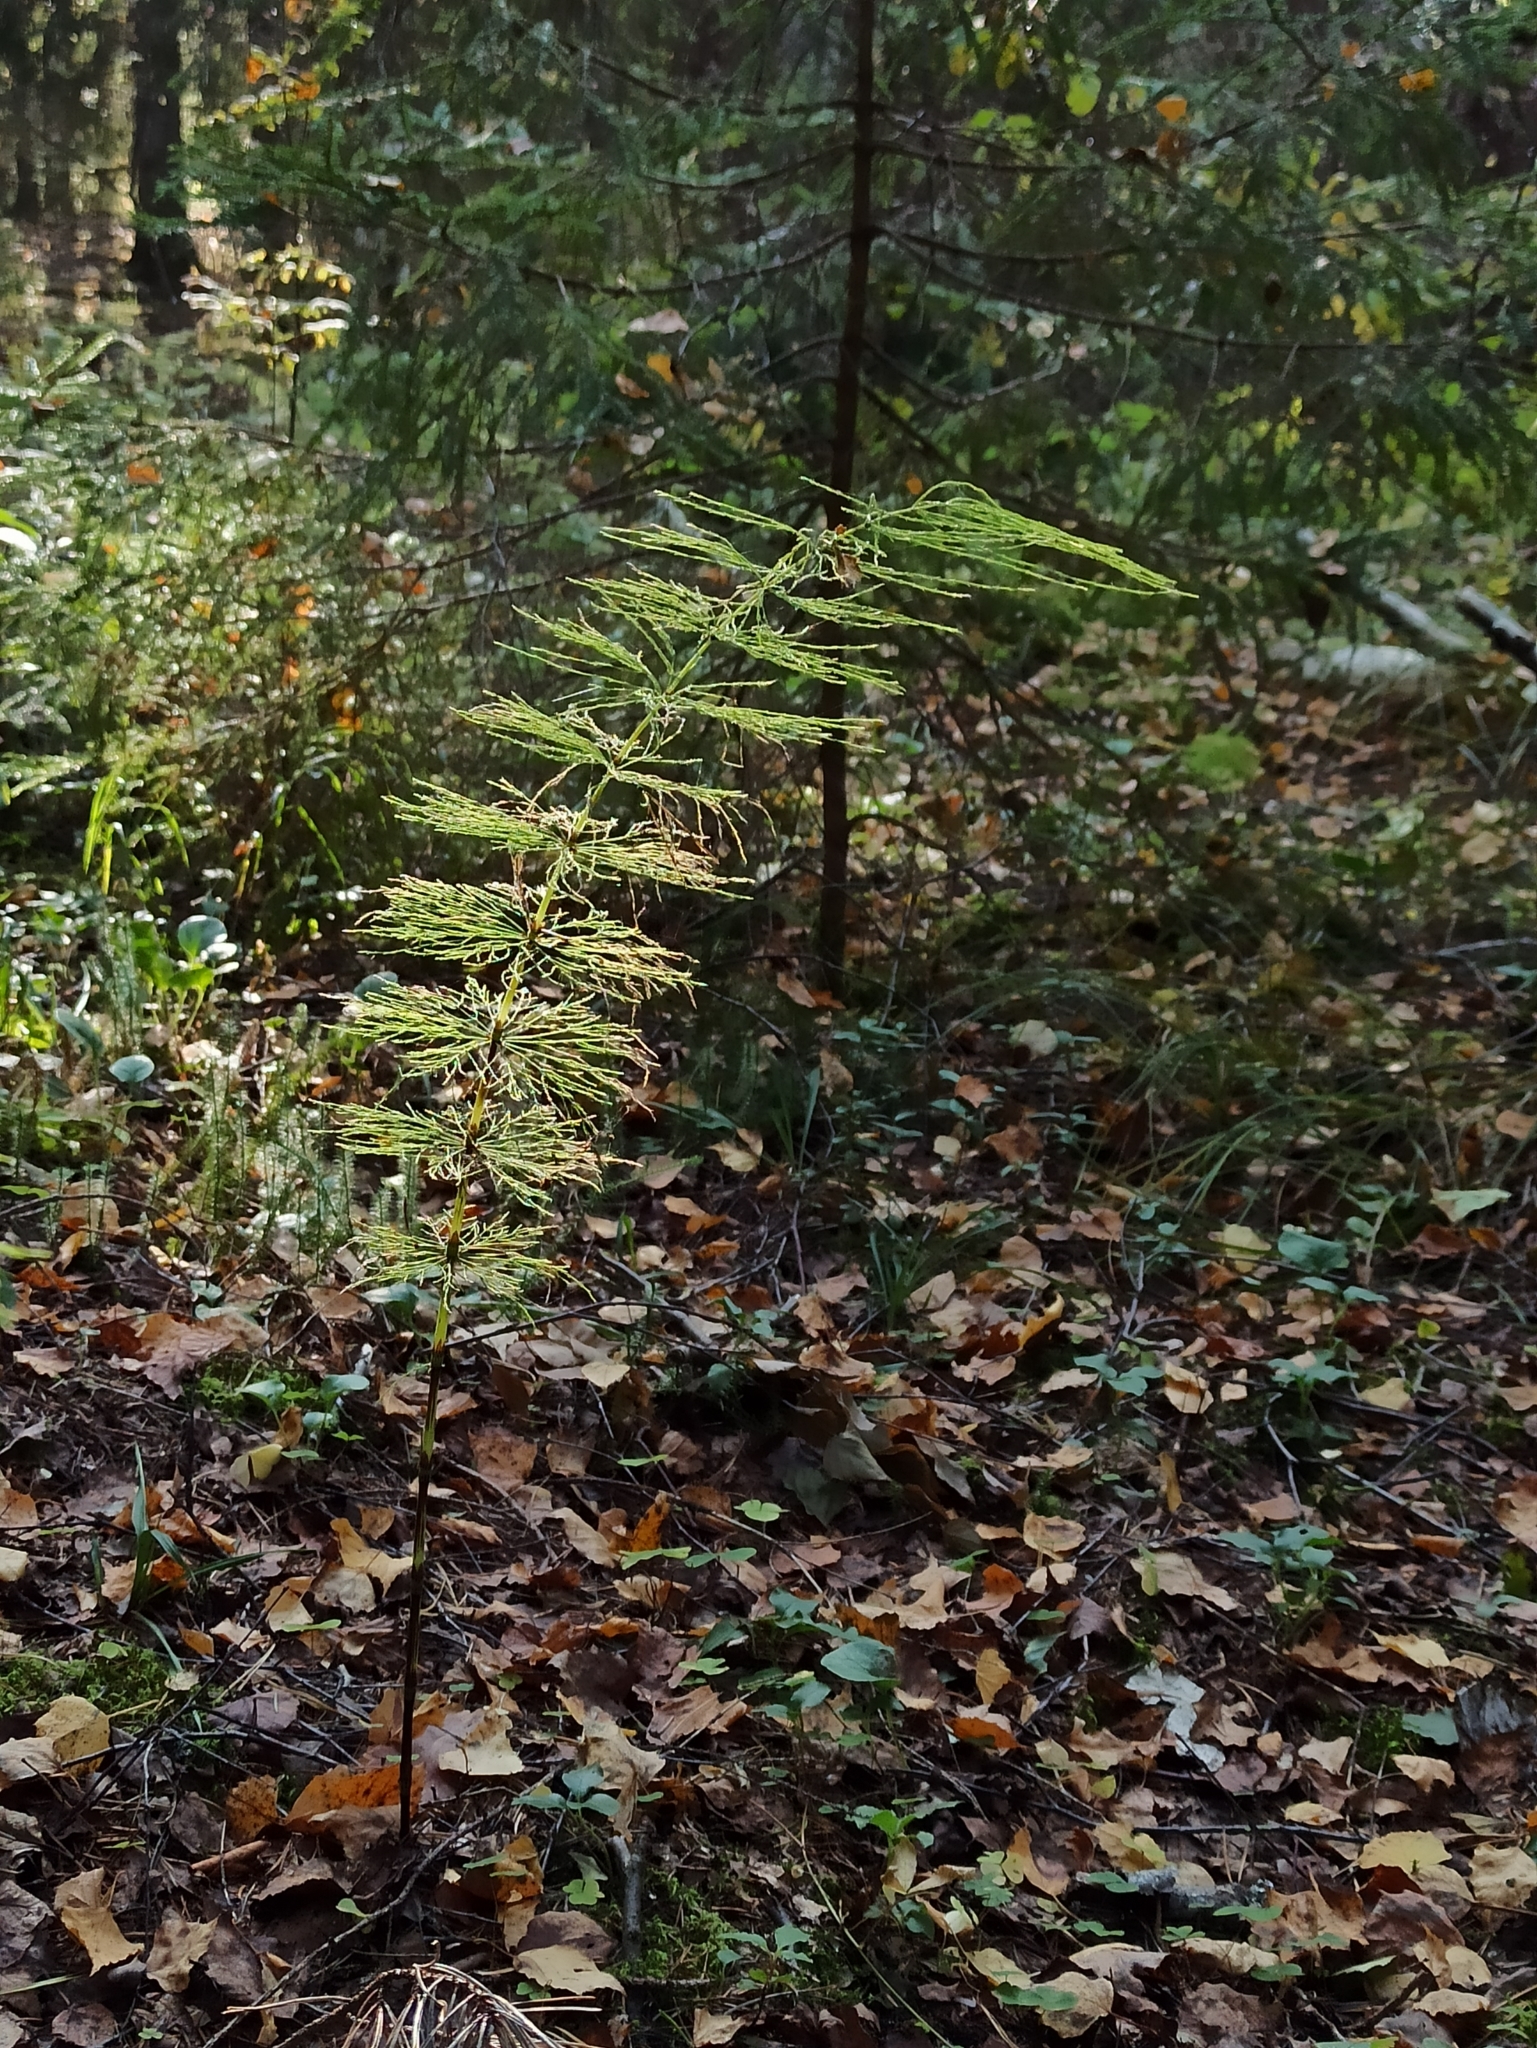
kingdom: Plantae
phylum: Tracheophyta
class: Polypodiopsida
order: Equisetales
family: Equisetaceae
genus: Equisetum
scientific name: Equisetum sylvaticum
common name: Wood horsetail
